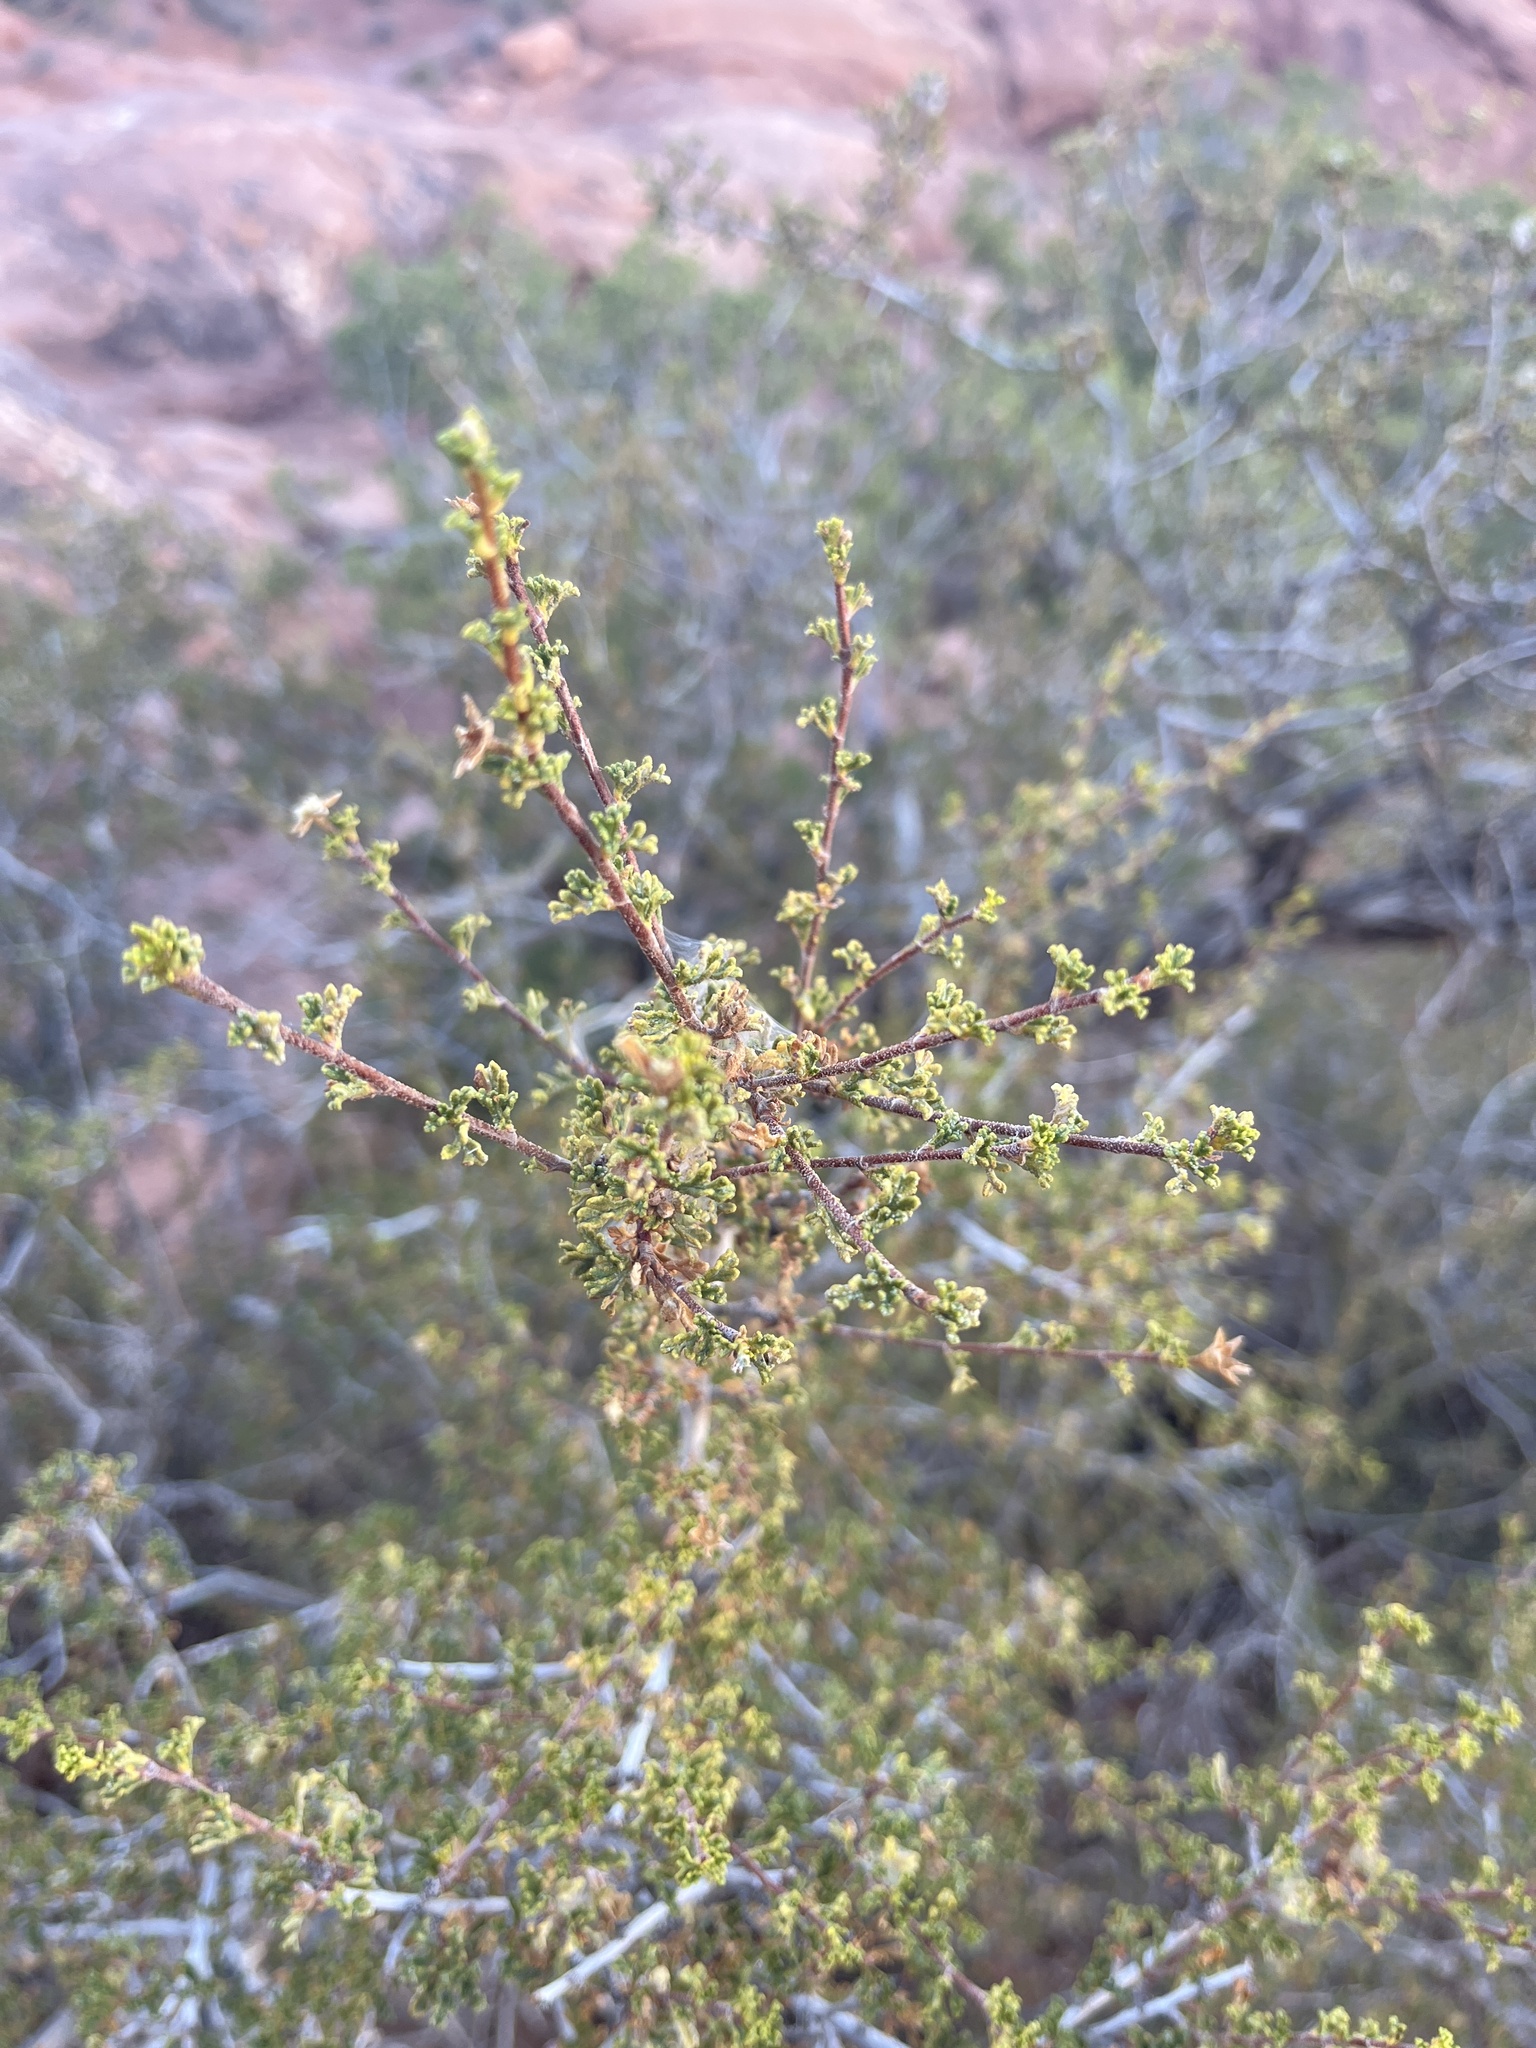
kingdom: Plantae
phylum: Tracheophyta
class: Magnoliopsida
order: Rosales
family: Rosaceae
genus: Cercocarpus
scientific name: Cercocarpus intricatus
